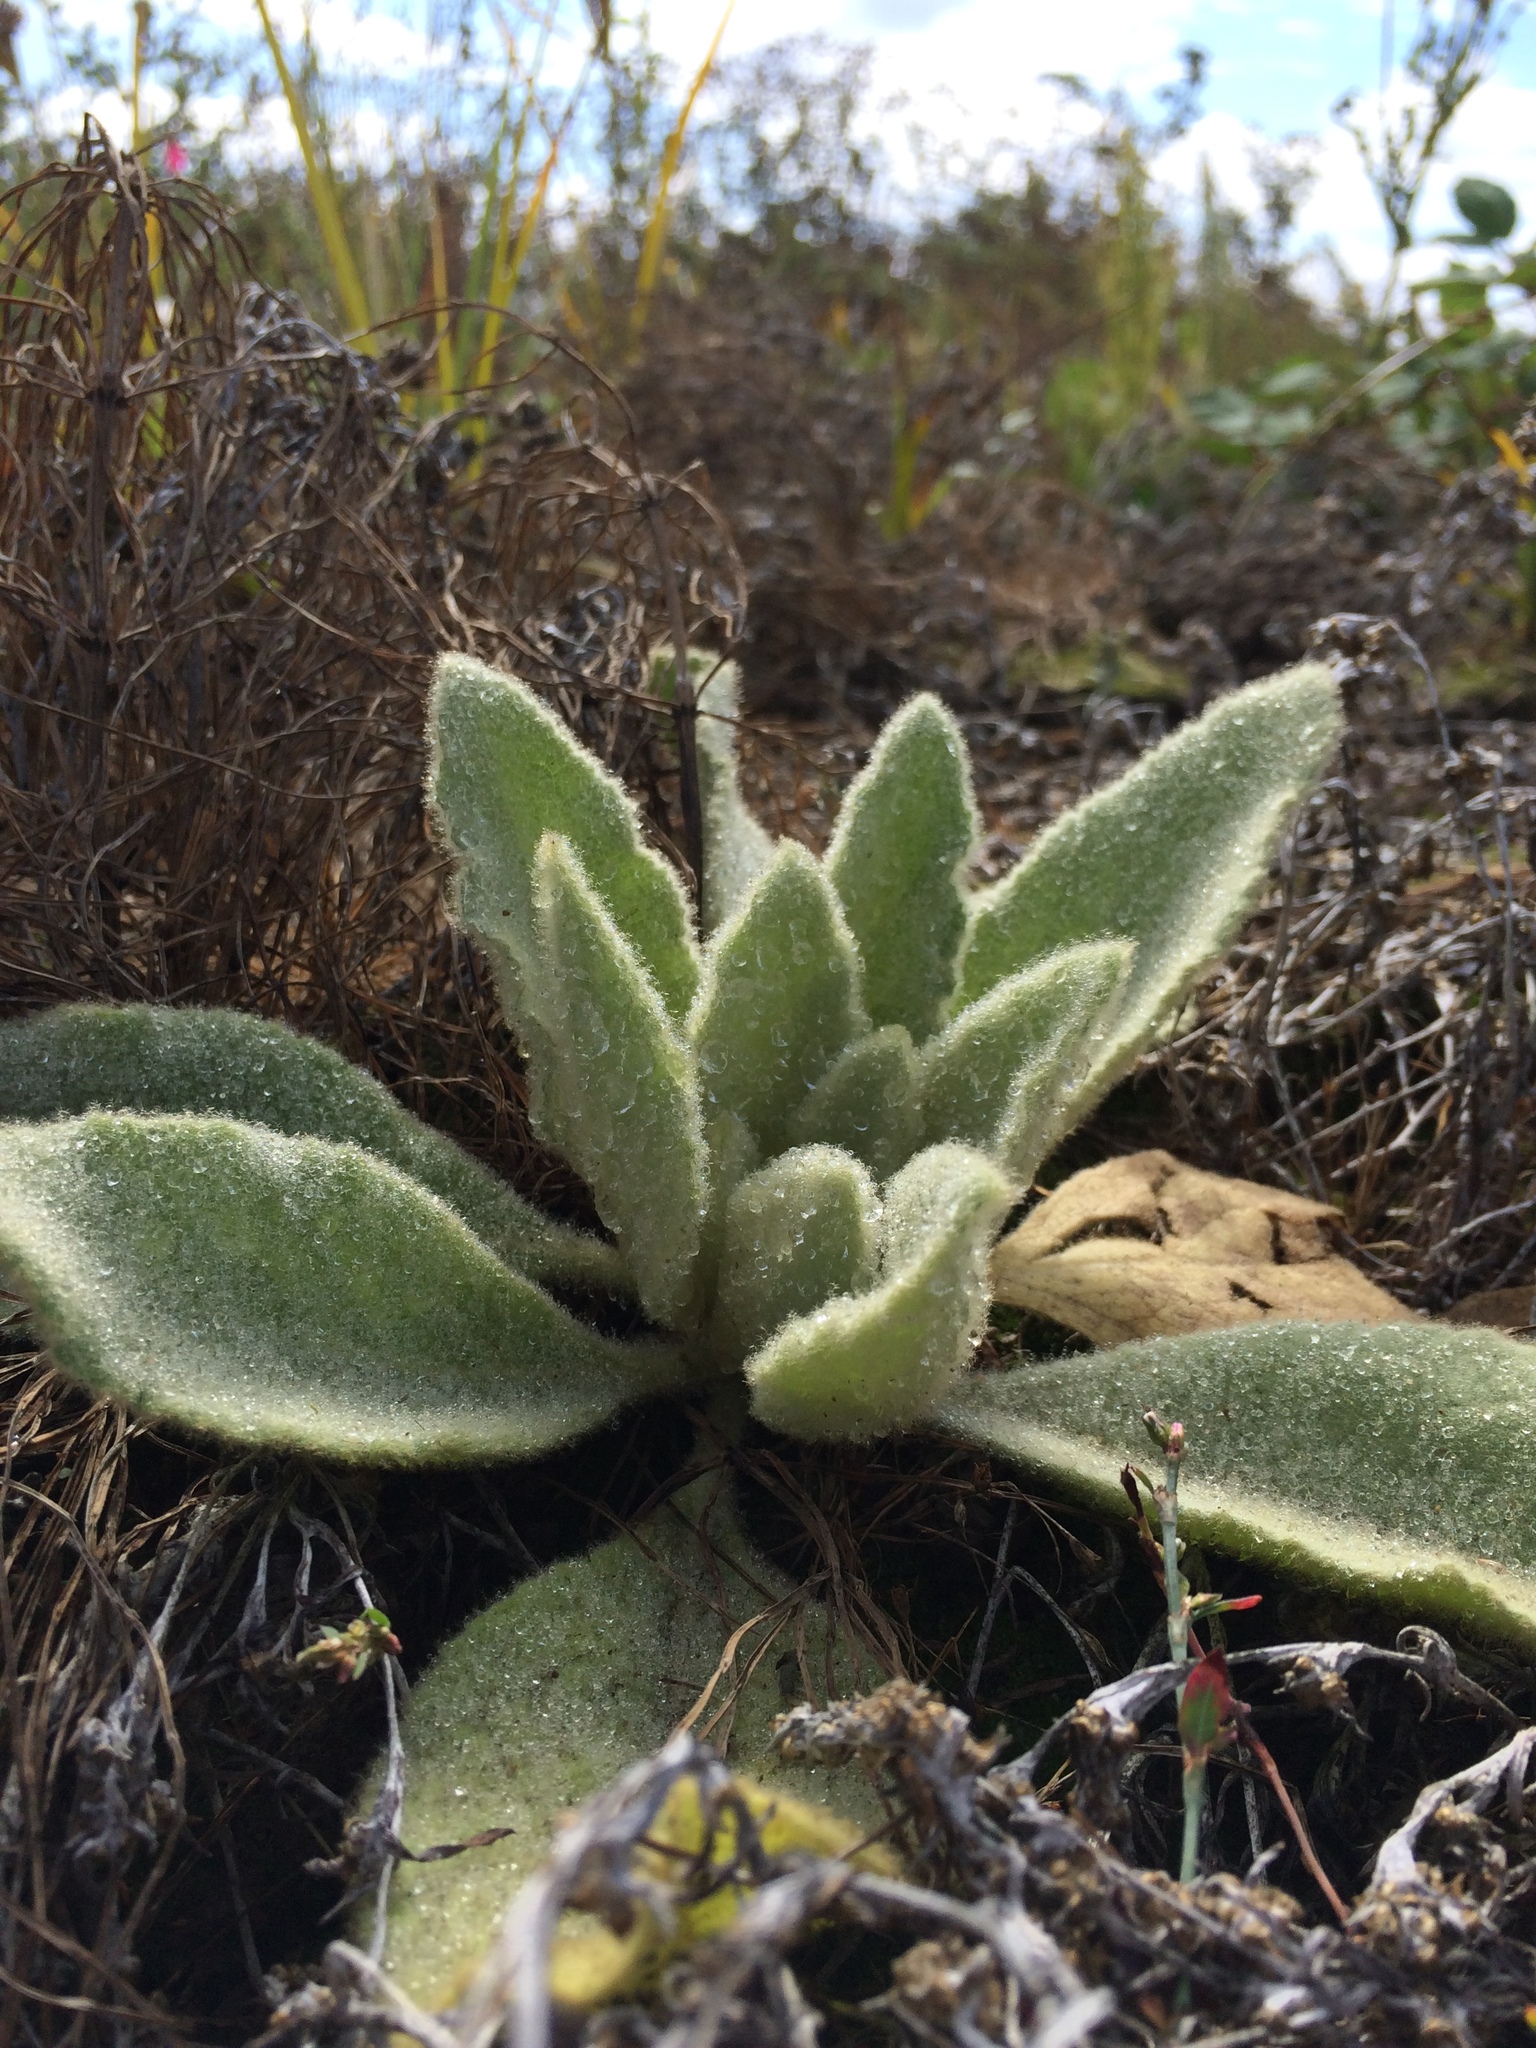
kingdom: Plantae
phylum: Tracheophyta
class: Magnoliopsida
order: Lamiales
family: Scrophulariaceae
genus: Verbascum
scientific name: Verbascum thapsus
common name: Common mullein
